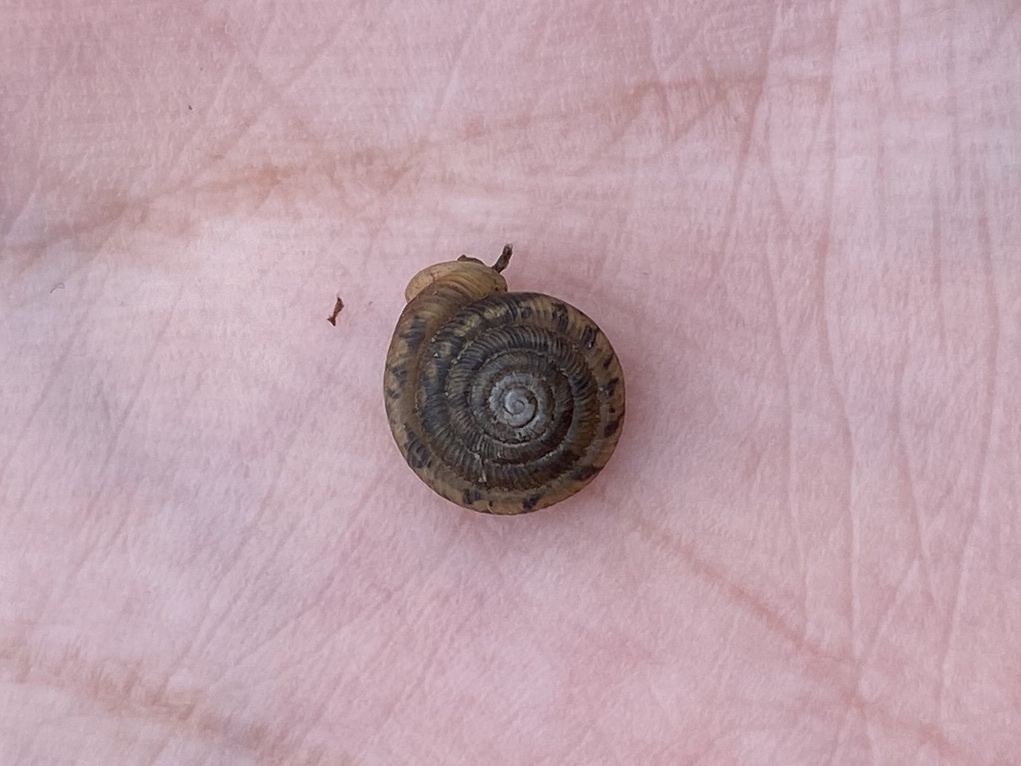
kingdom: Animalia
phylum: Mollusca
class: Gastropoda
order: Stylommatophora
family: Polygyridae
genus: Polygyra
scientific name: Polygyra cereolus
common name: Southern flatcone snail
